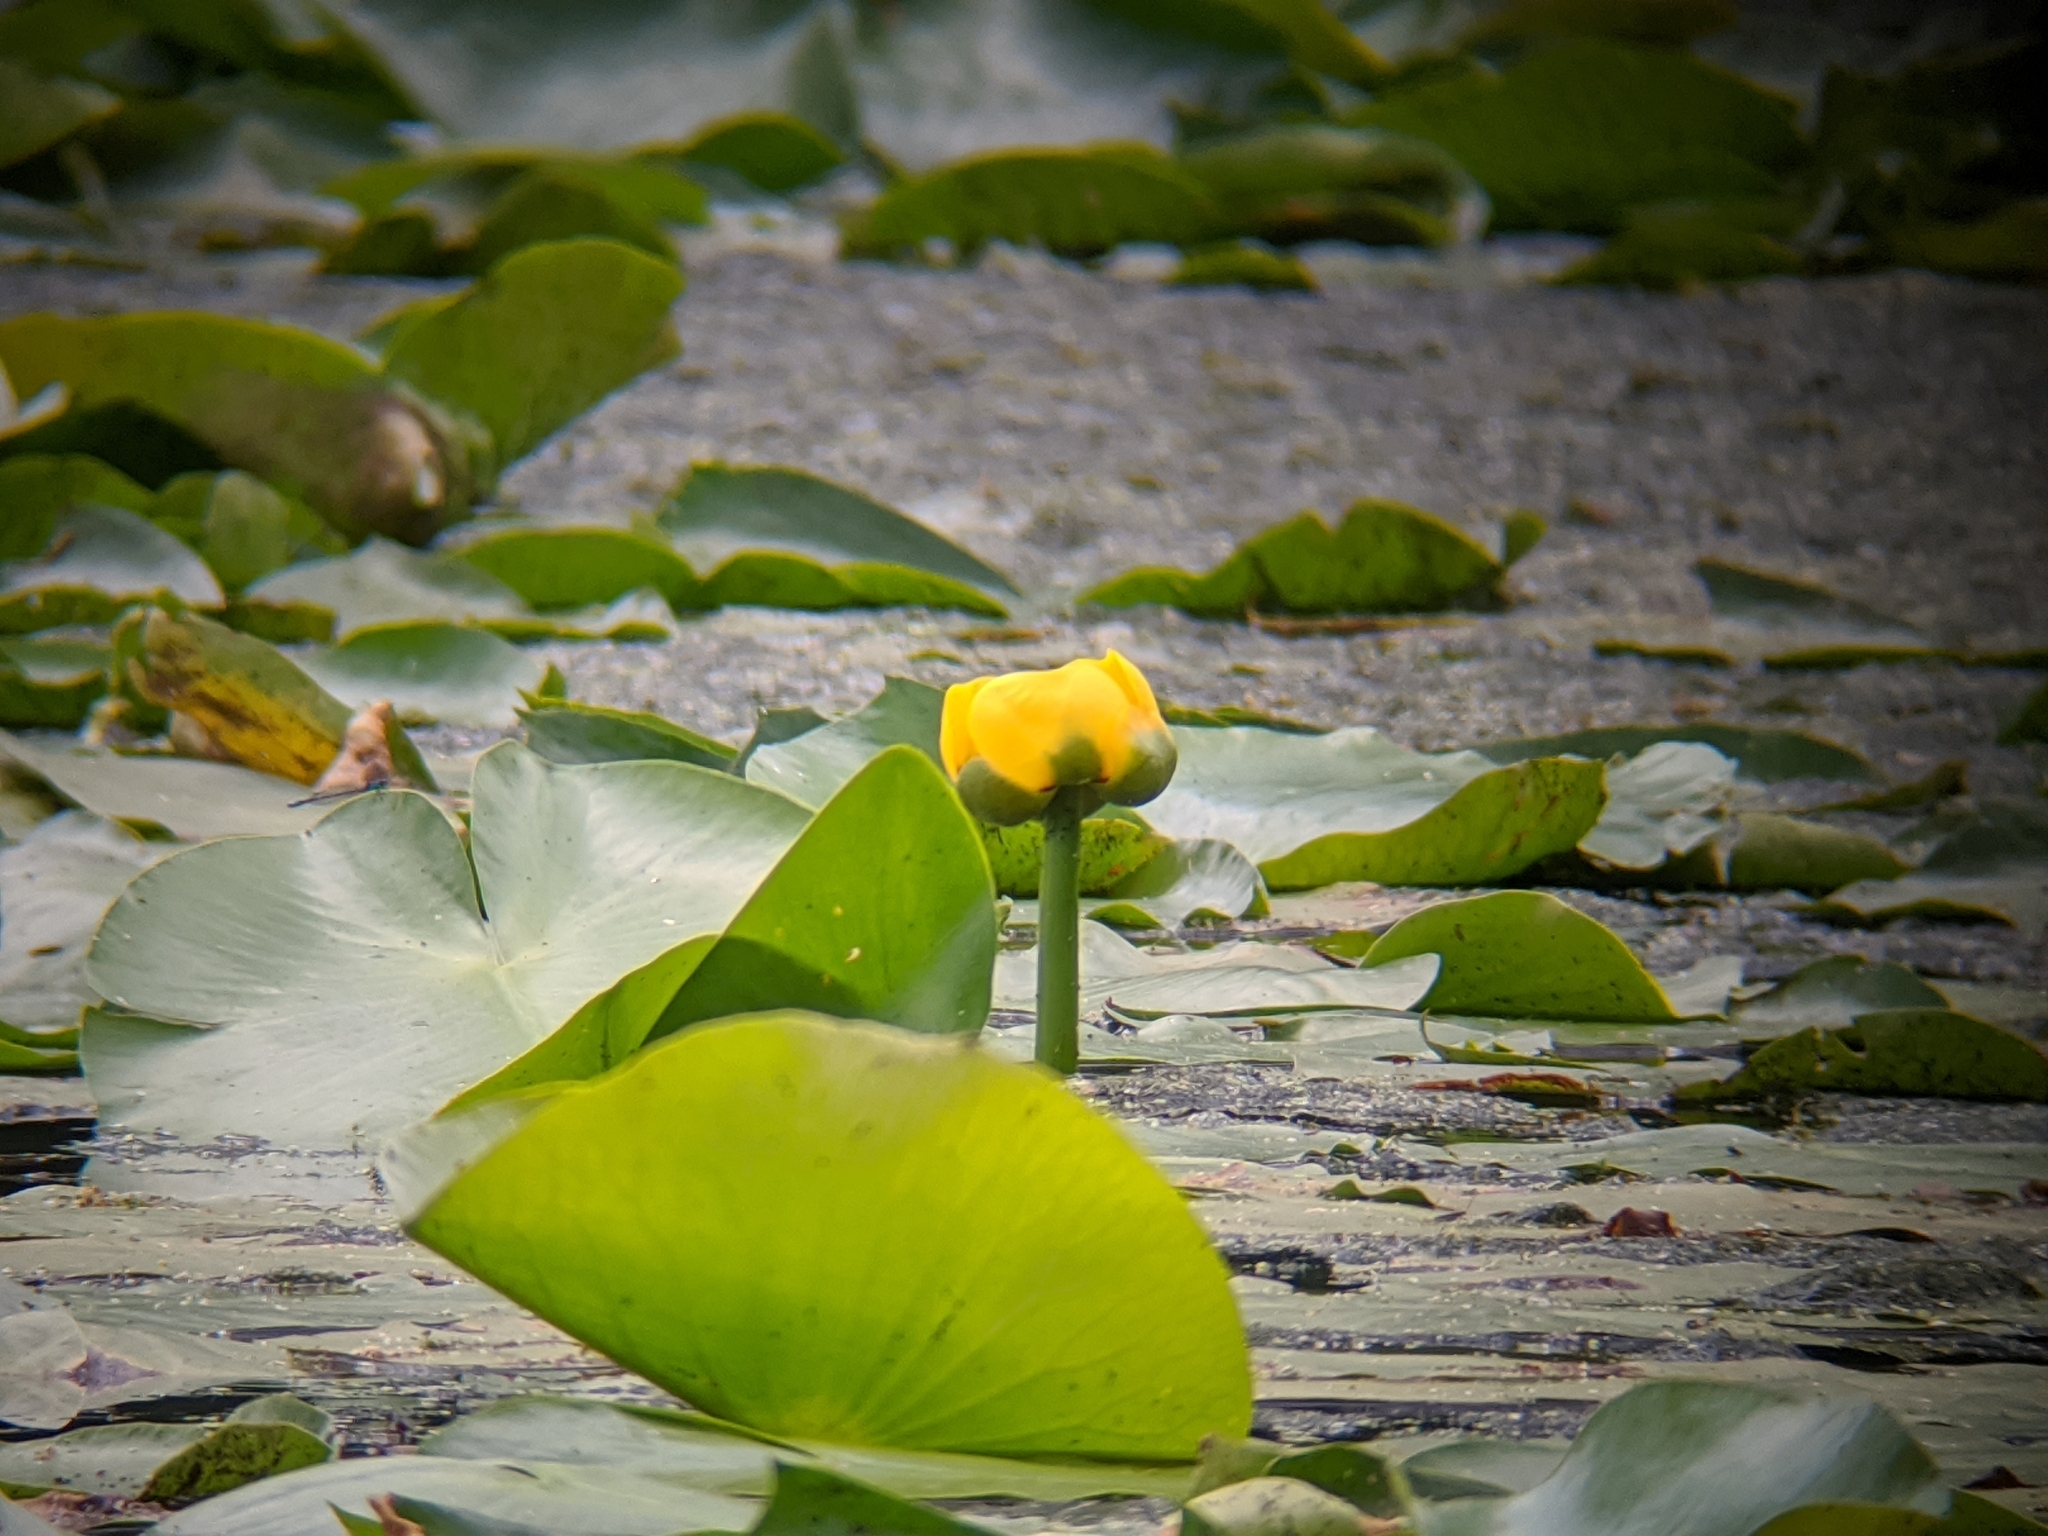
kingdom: Plantae
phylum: Tracheophyta
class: Magnoliopsida
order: Nymphaeales
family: Nymphaeaceae
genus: Nuphar
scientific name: Nuphar variegata
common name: Beaver-root
